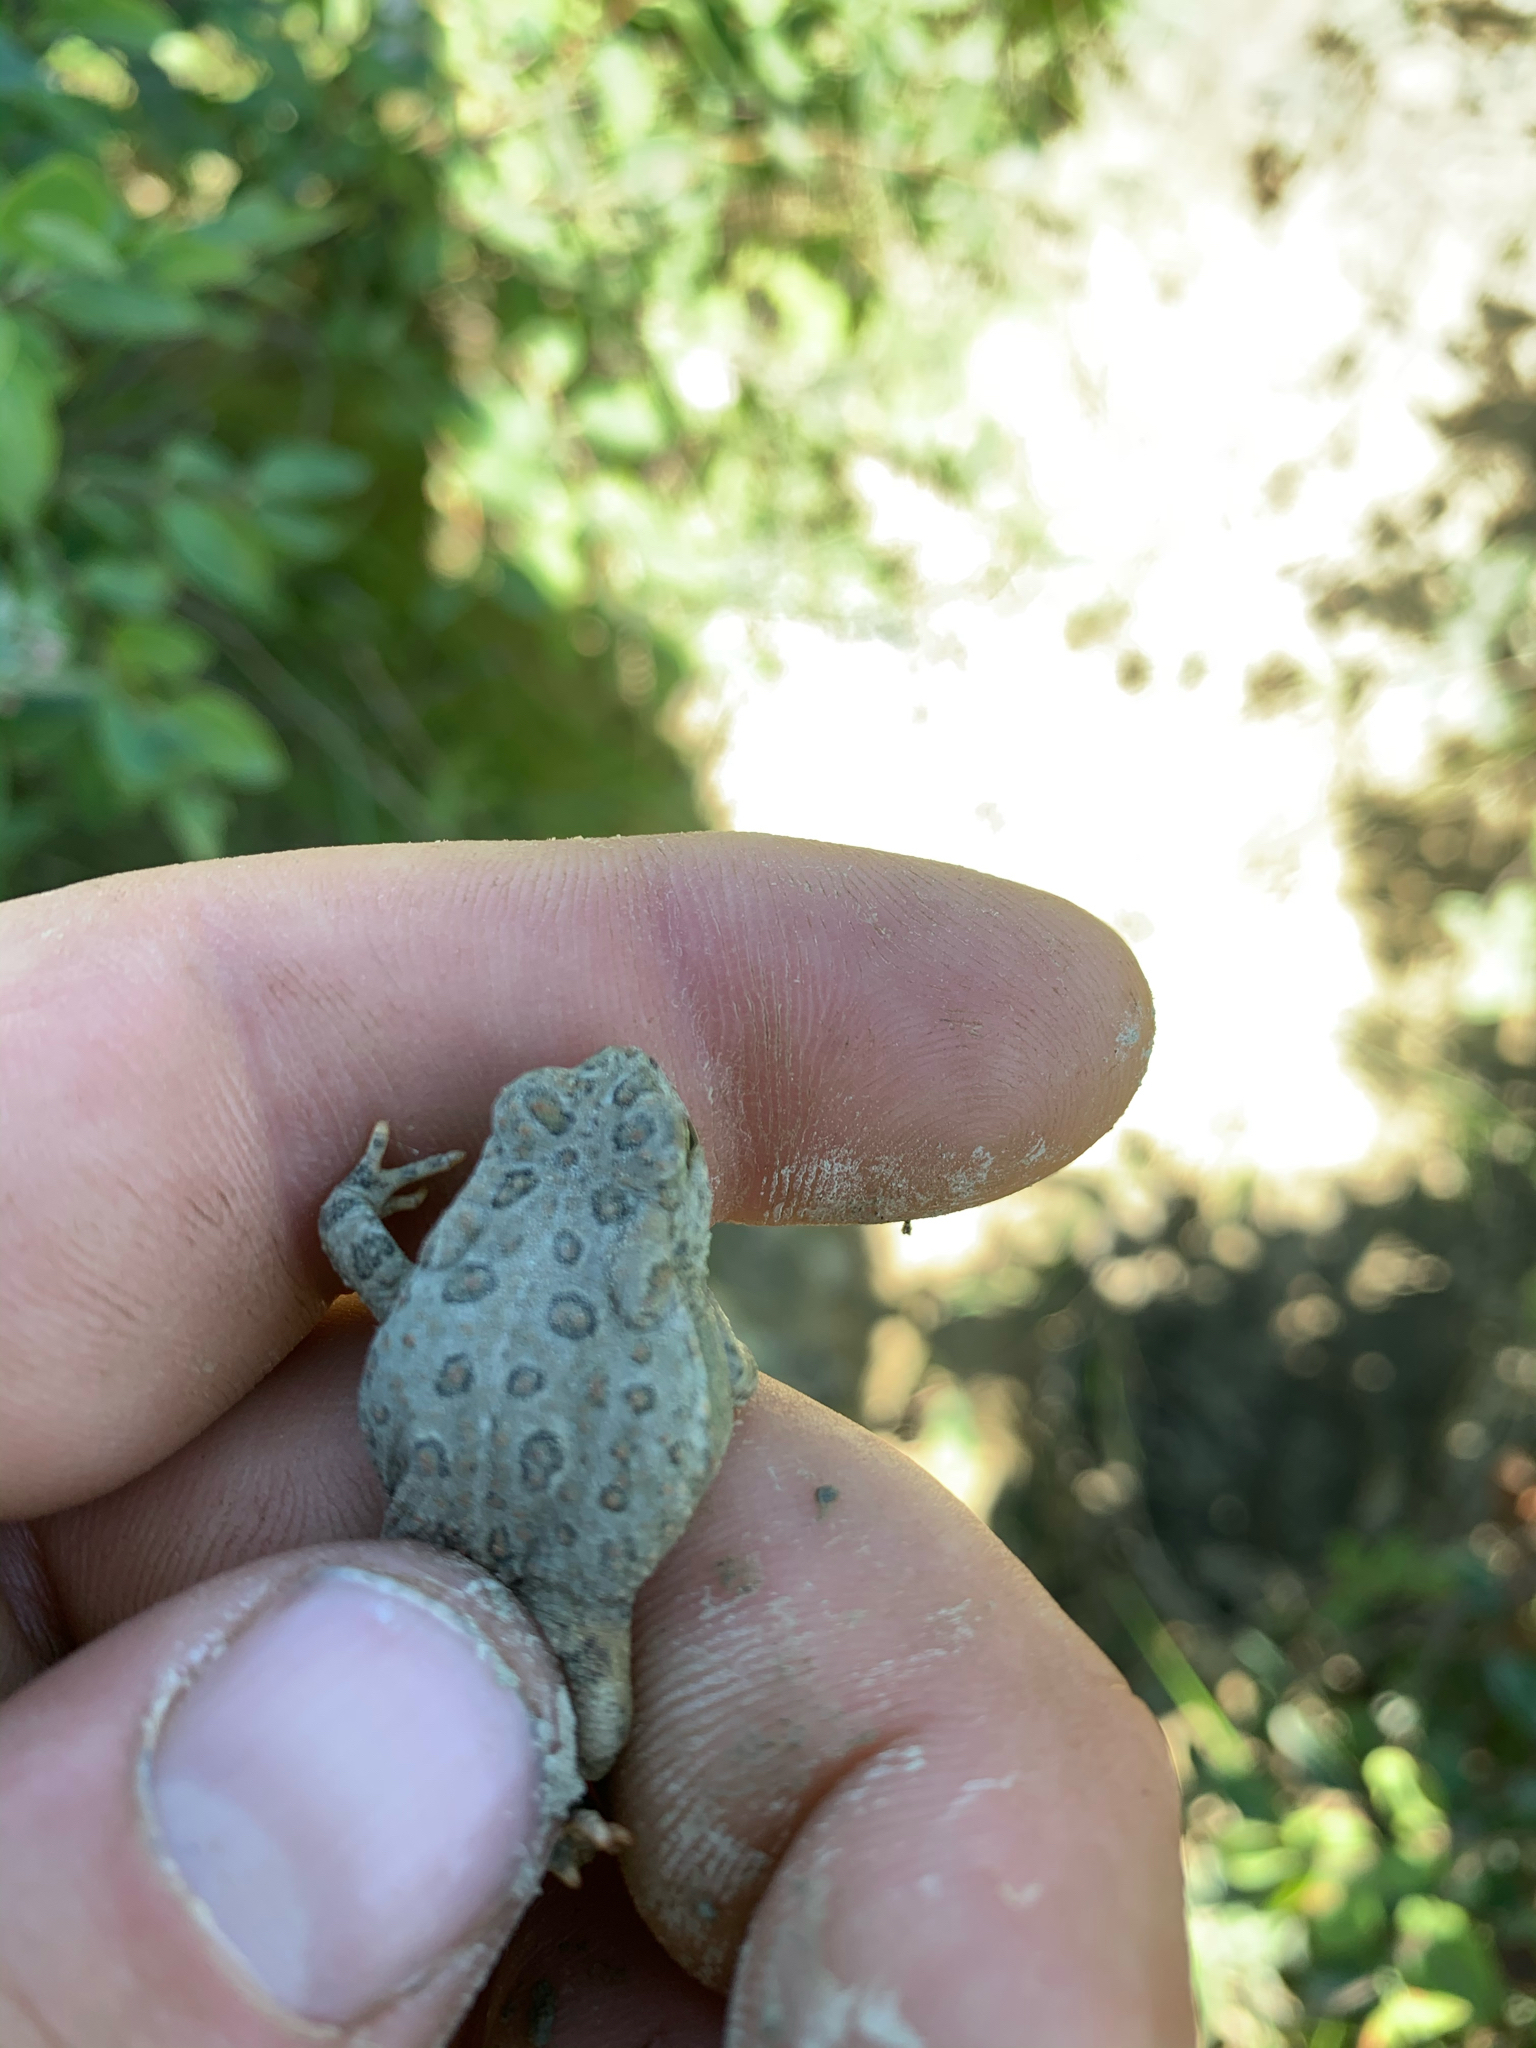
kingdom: Animalia
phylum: Chordata
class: Amphibia
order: Anura
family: Bufonidae
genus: Anaxyrus
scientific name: Anaxyrus woodhousii
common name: Woodhouse's toad
